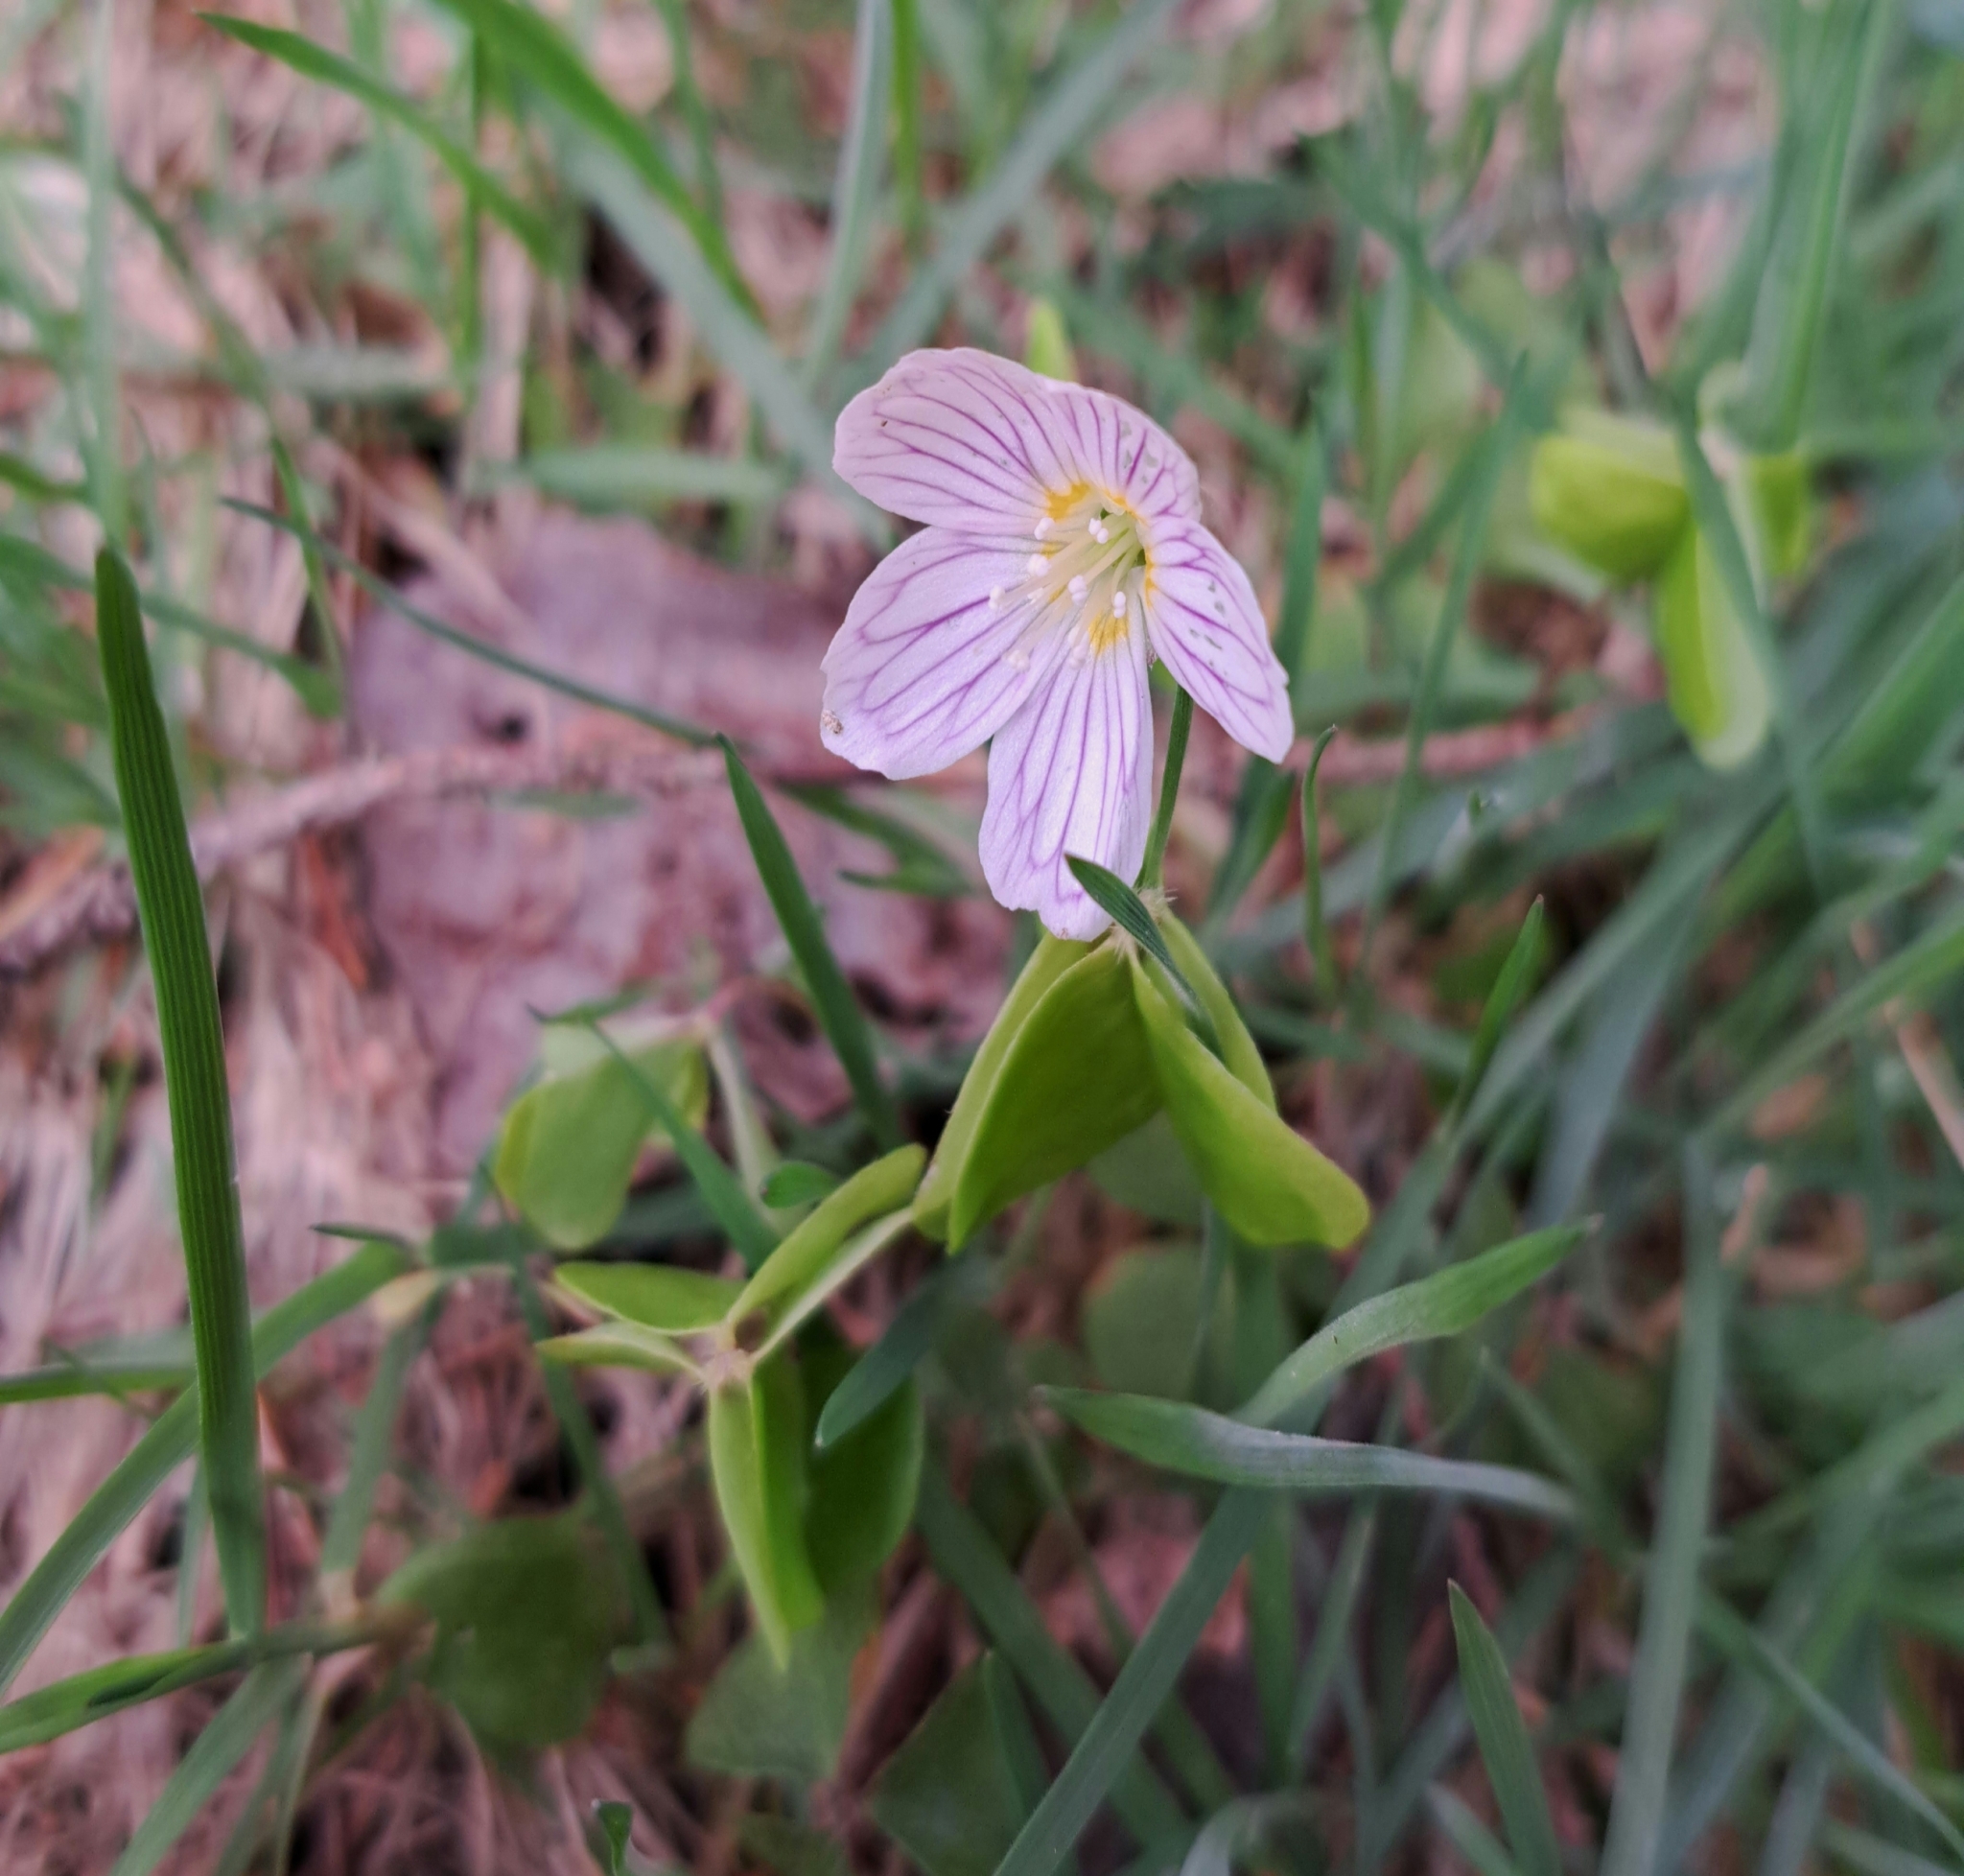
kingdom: Plantae
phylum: Tracheophyta
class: Magnoliopsida
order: Oxalidales
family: Oxalidaceae
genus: Oxalis
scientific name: Oxalis acetosella
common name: Wood-sorrel
